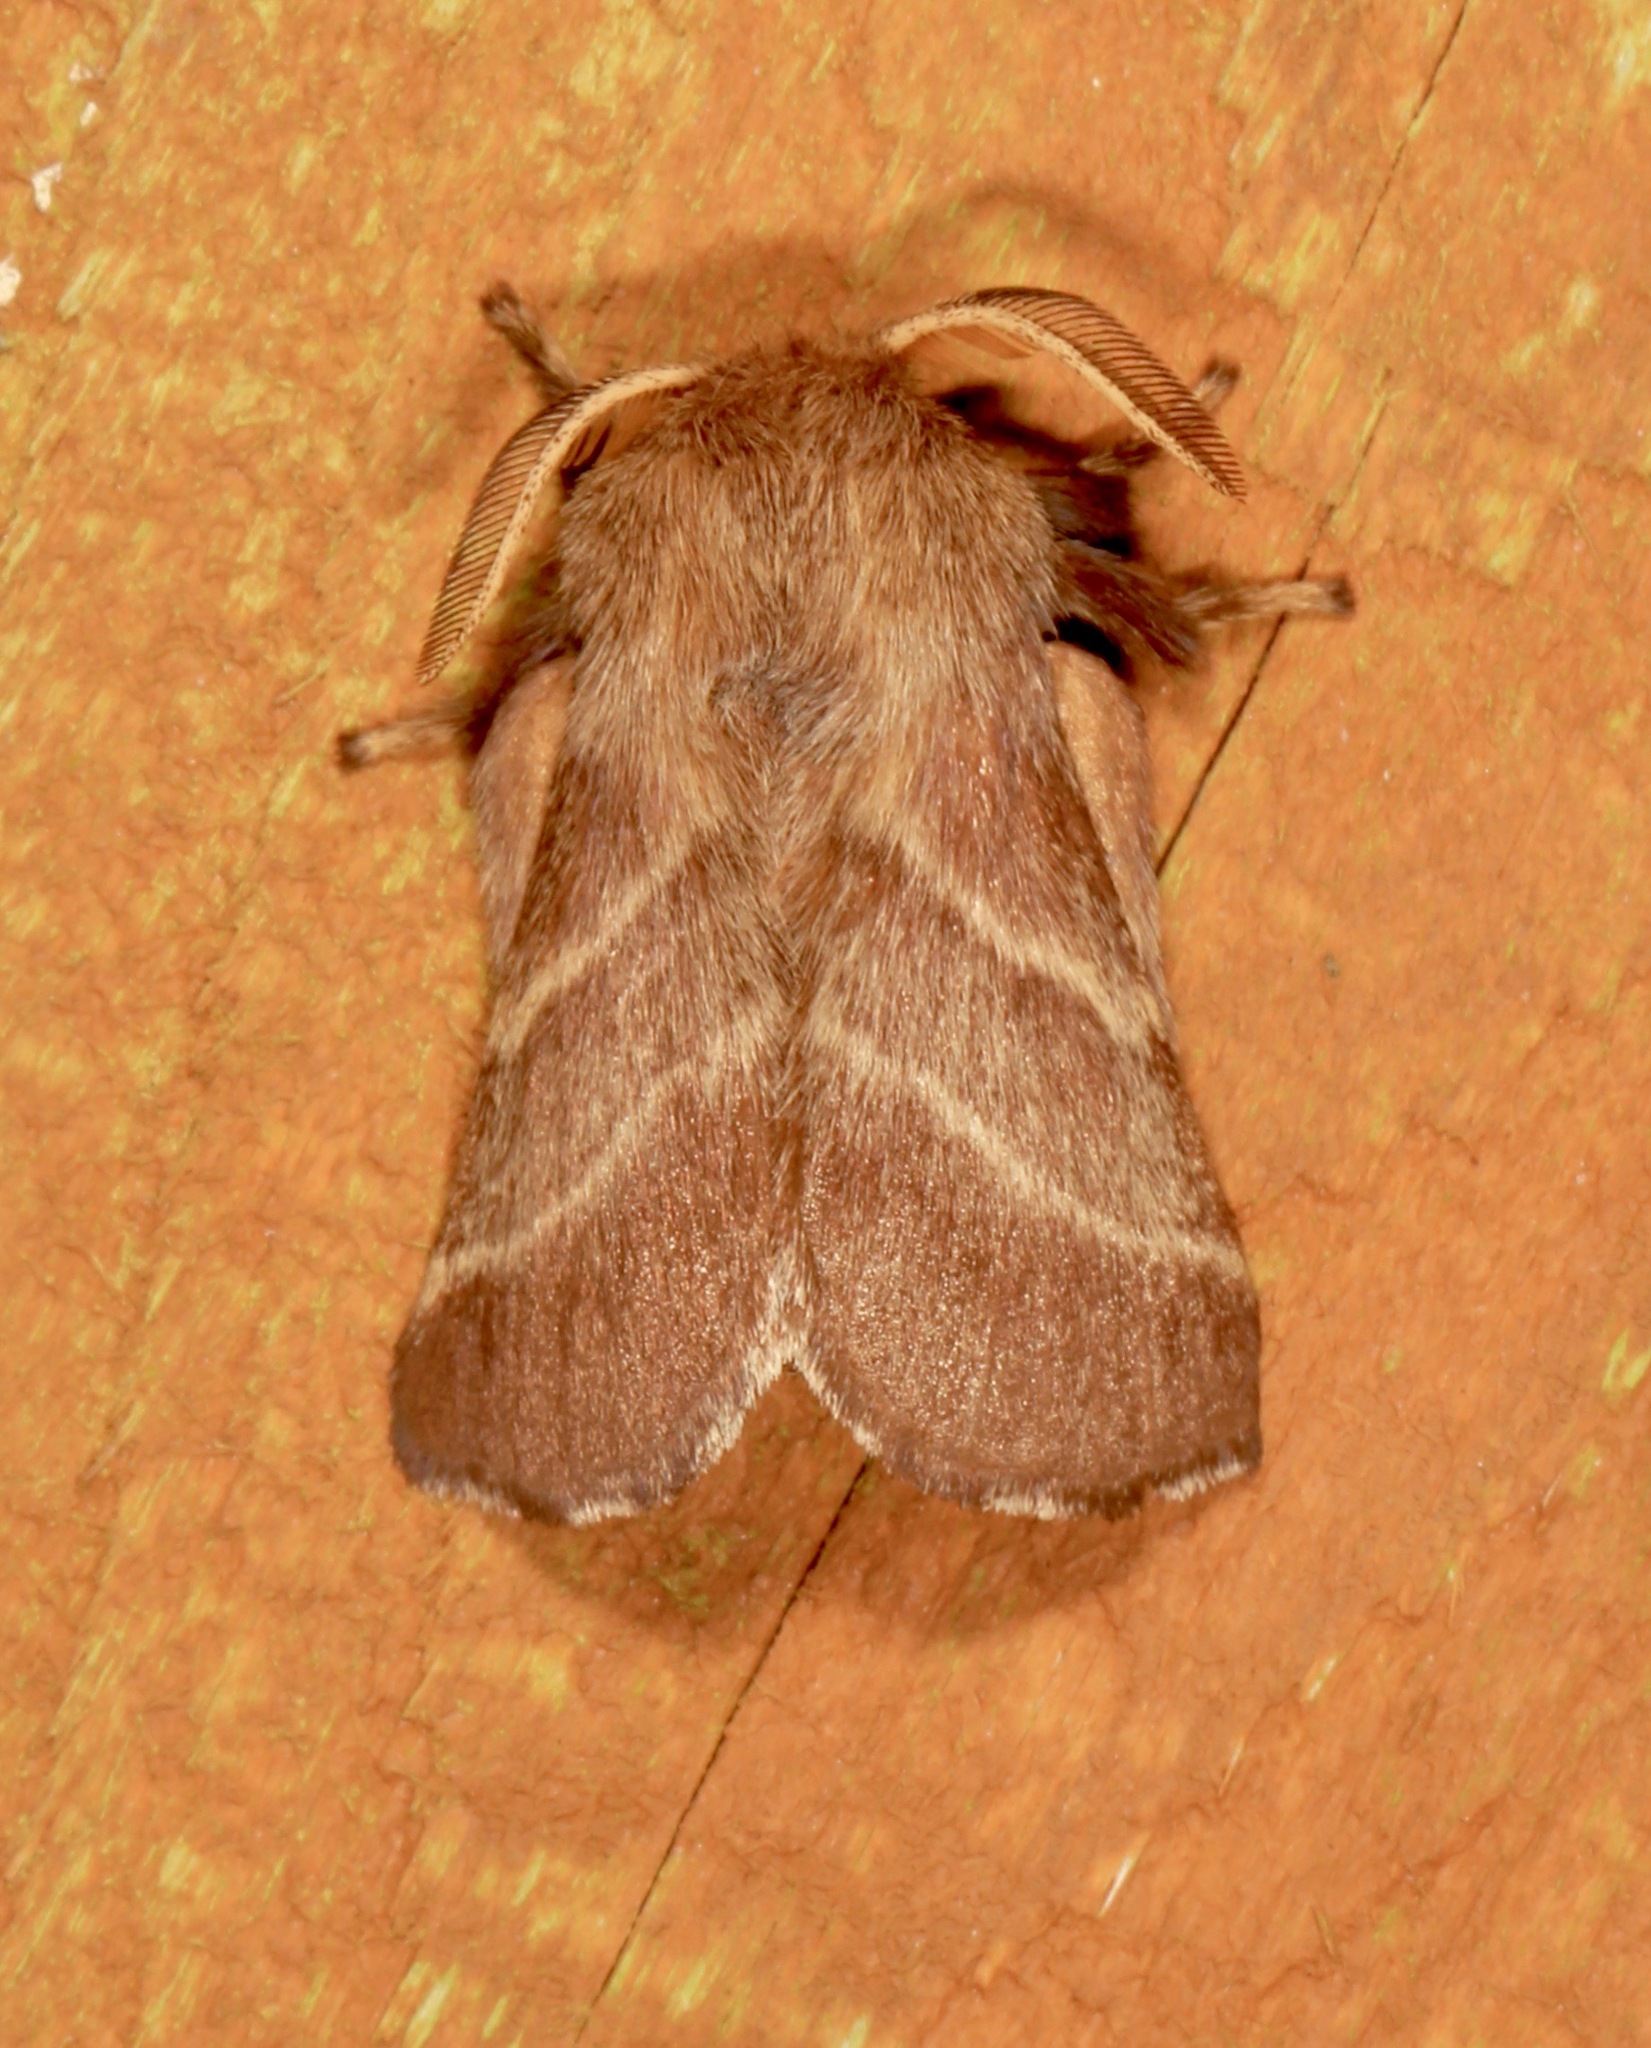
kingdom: Animalia
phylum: Arthropoda
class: Insecta
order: Lepidoptera
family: Lasiocampidae
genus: Malacosoma
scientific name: Malacosoma americana
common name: Eastern tent caterpillar moth
